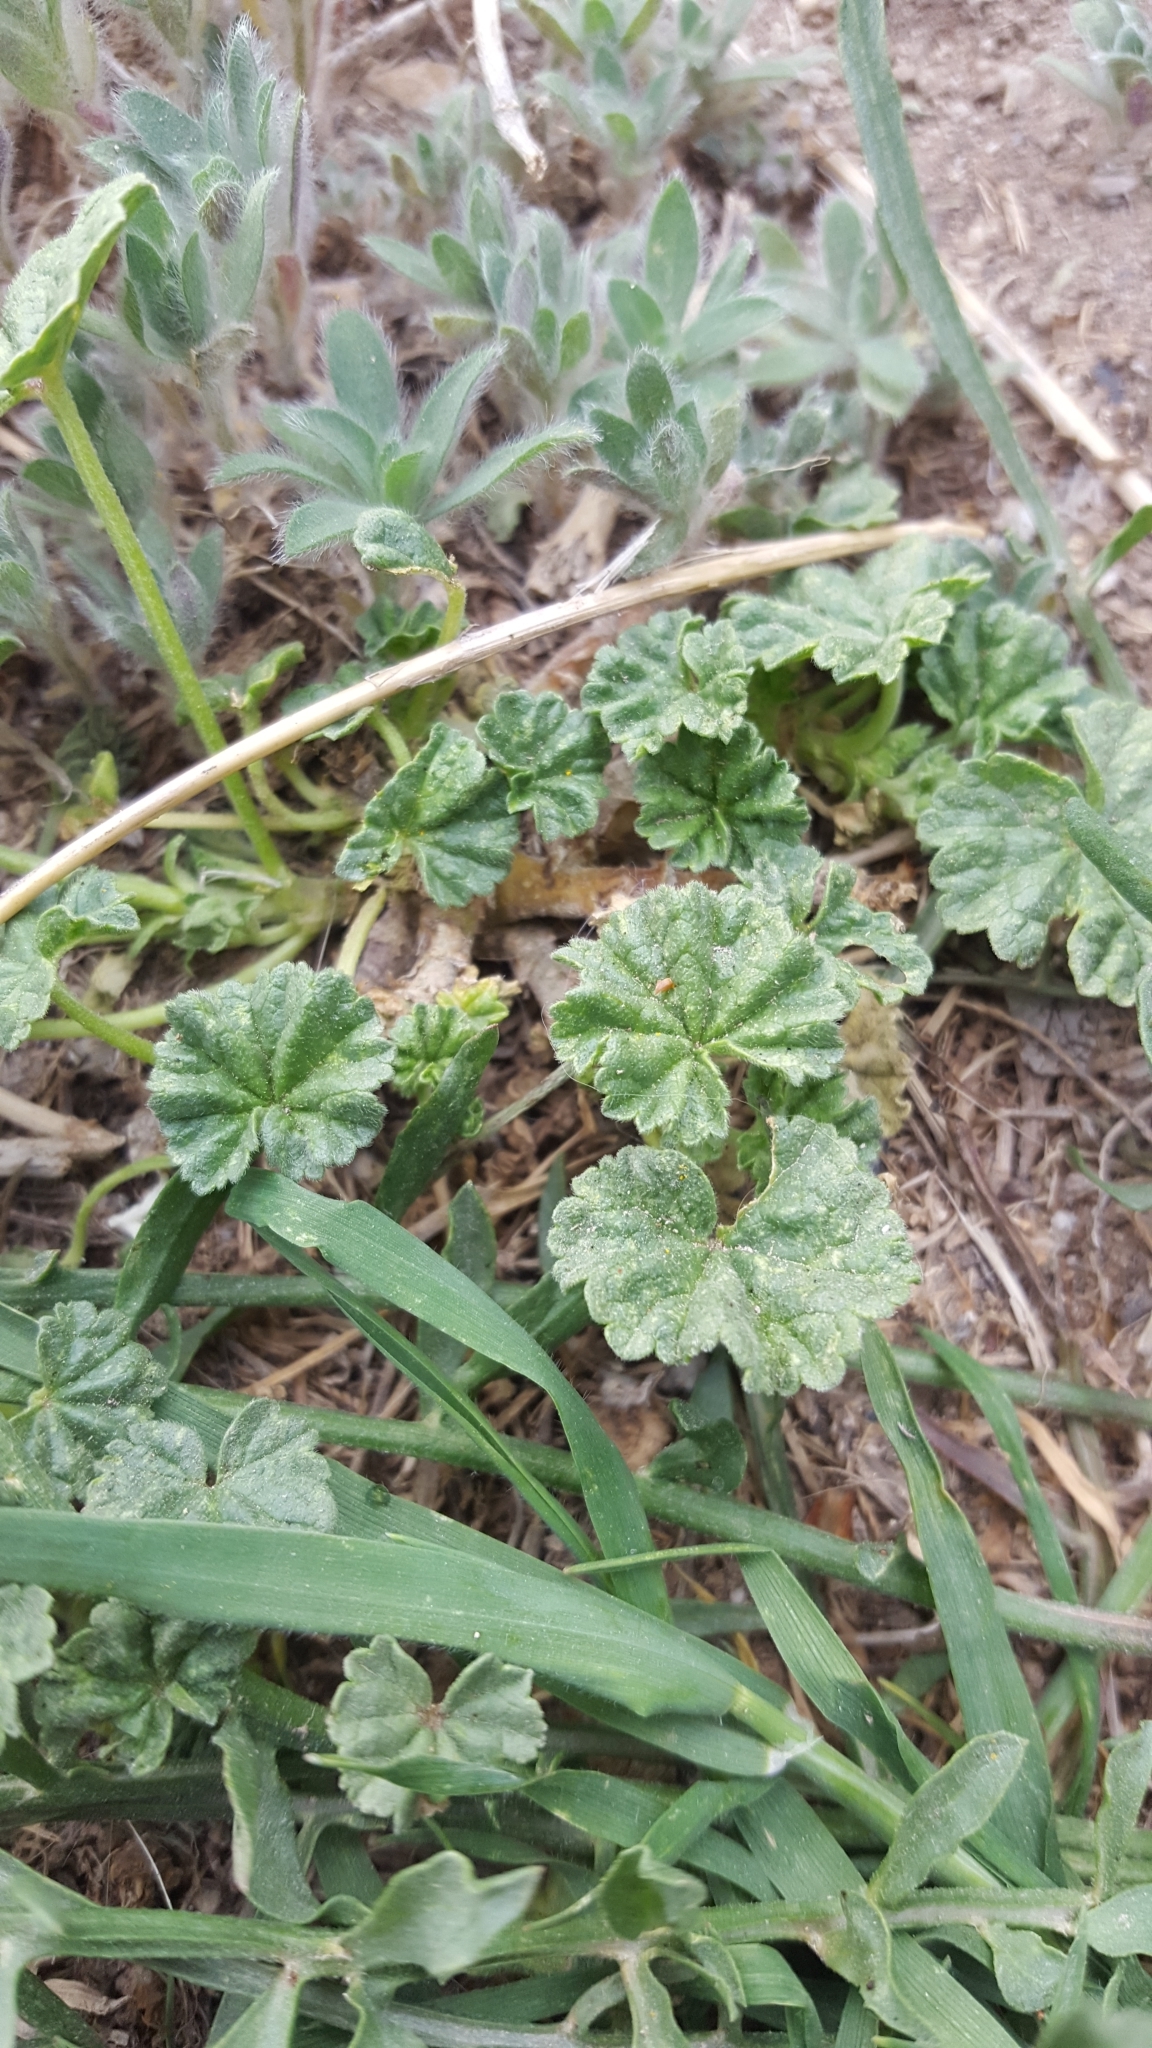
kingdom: Plantae
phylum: Tracheophyta
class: Magnoliopsida
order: Malvales
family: Malvaceae
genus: Malva
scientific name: Malva neglecta
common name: Common mallow
